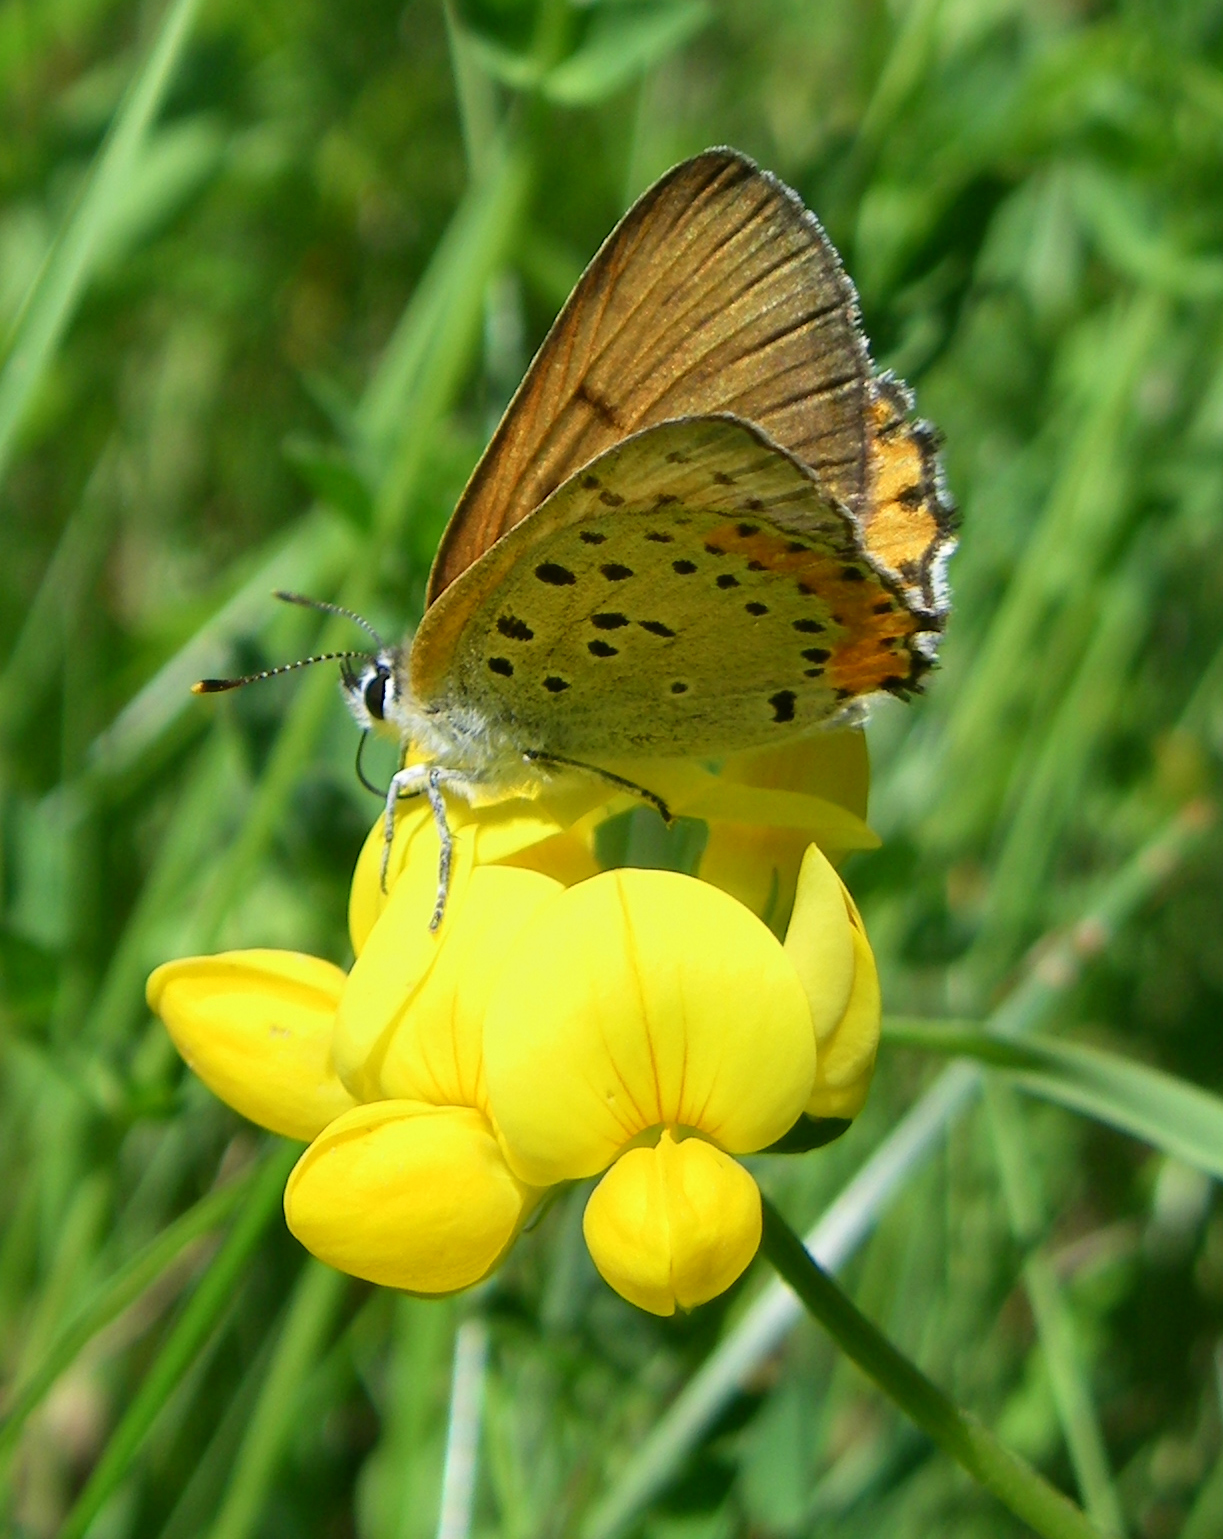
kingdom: Animalia
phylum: Arthropoda
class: Insecta
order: Lepidoptera
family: Lycaenidae
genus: Tharsalea
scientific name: Tharsalea hyllus
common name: Bronze copper
